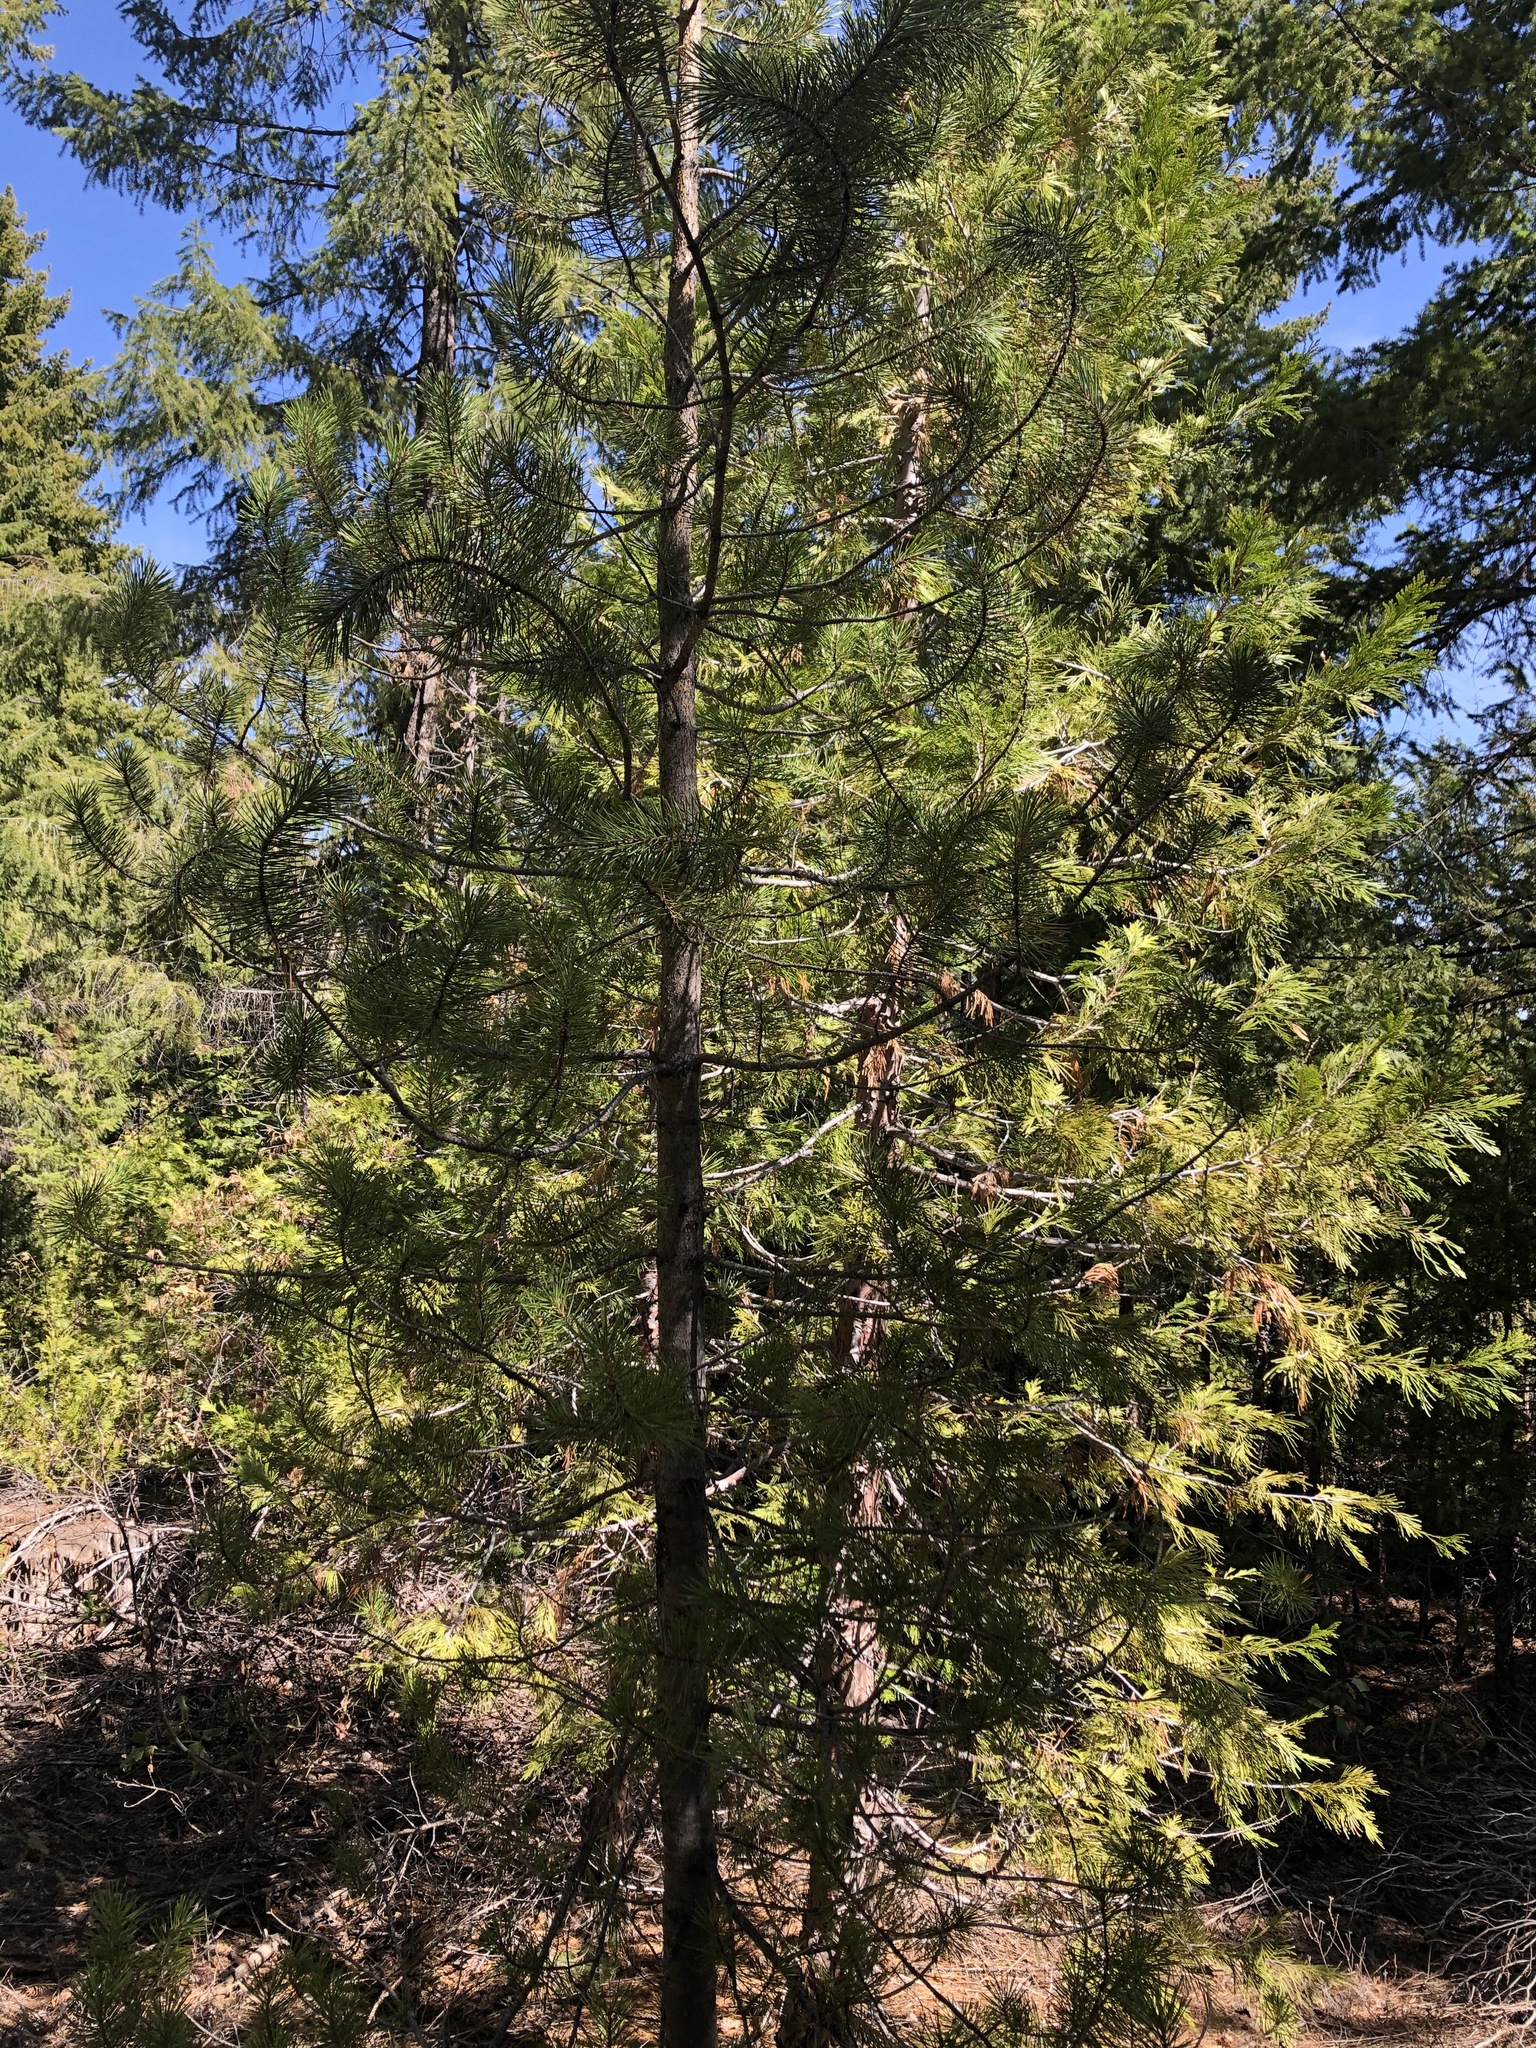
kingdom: Plantae
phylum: Tracheophyta
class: Pinopsida
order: Pinales
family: Pinaceae
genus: Pinus
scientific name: Pinus contorta
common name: Lodgepole pine
